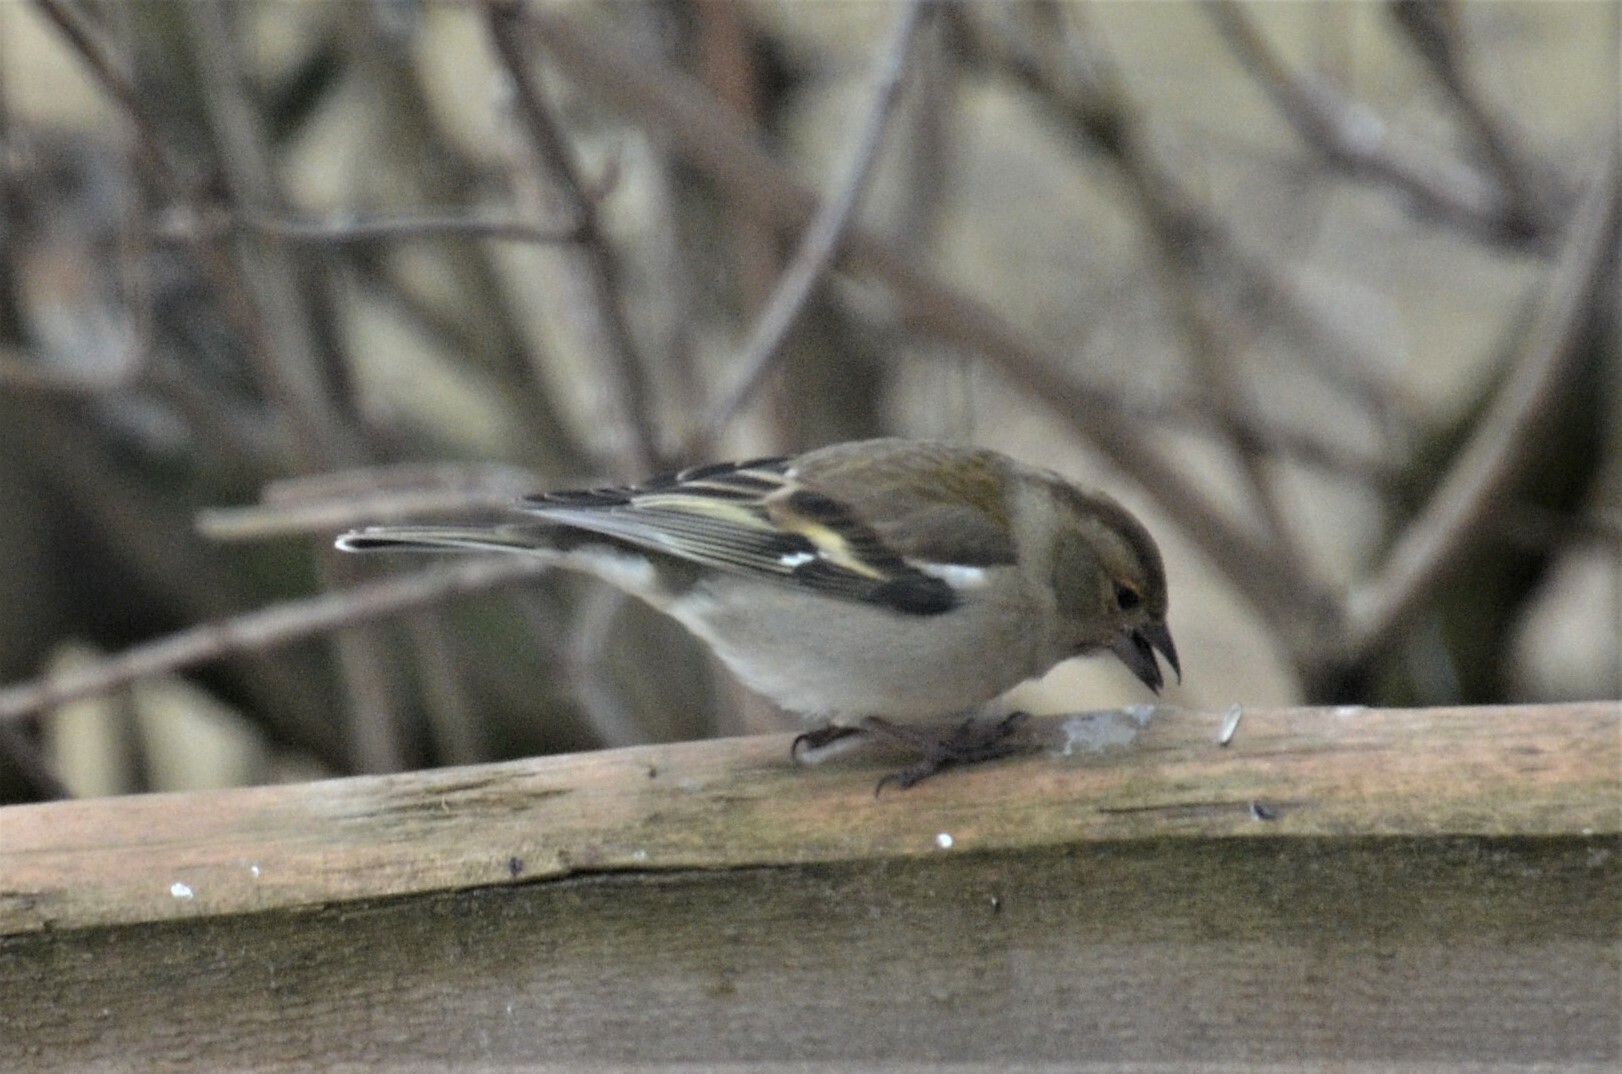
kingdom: Animalia
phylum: Chordata
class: Aves
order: Passeriformes
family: Fringillidae
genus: Fringilla
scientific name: Fringilla coelebs
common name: Common chaffinch
